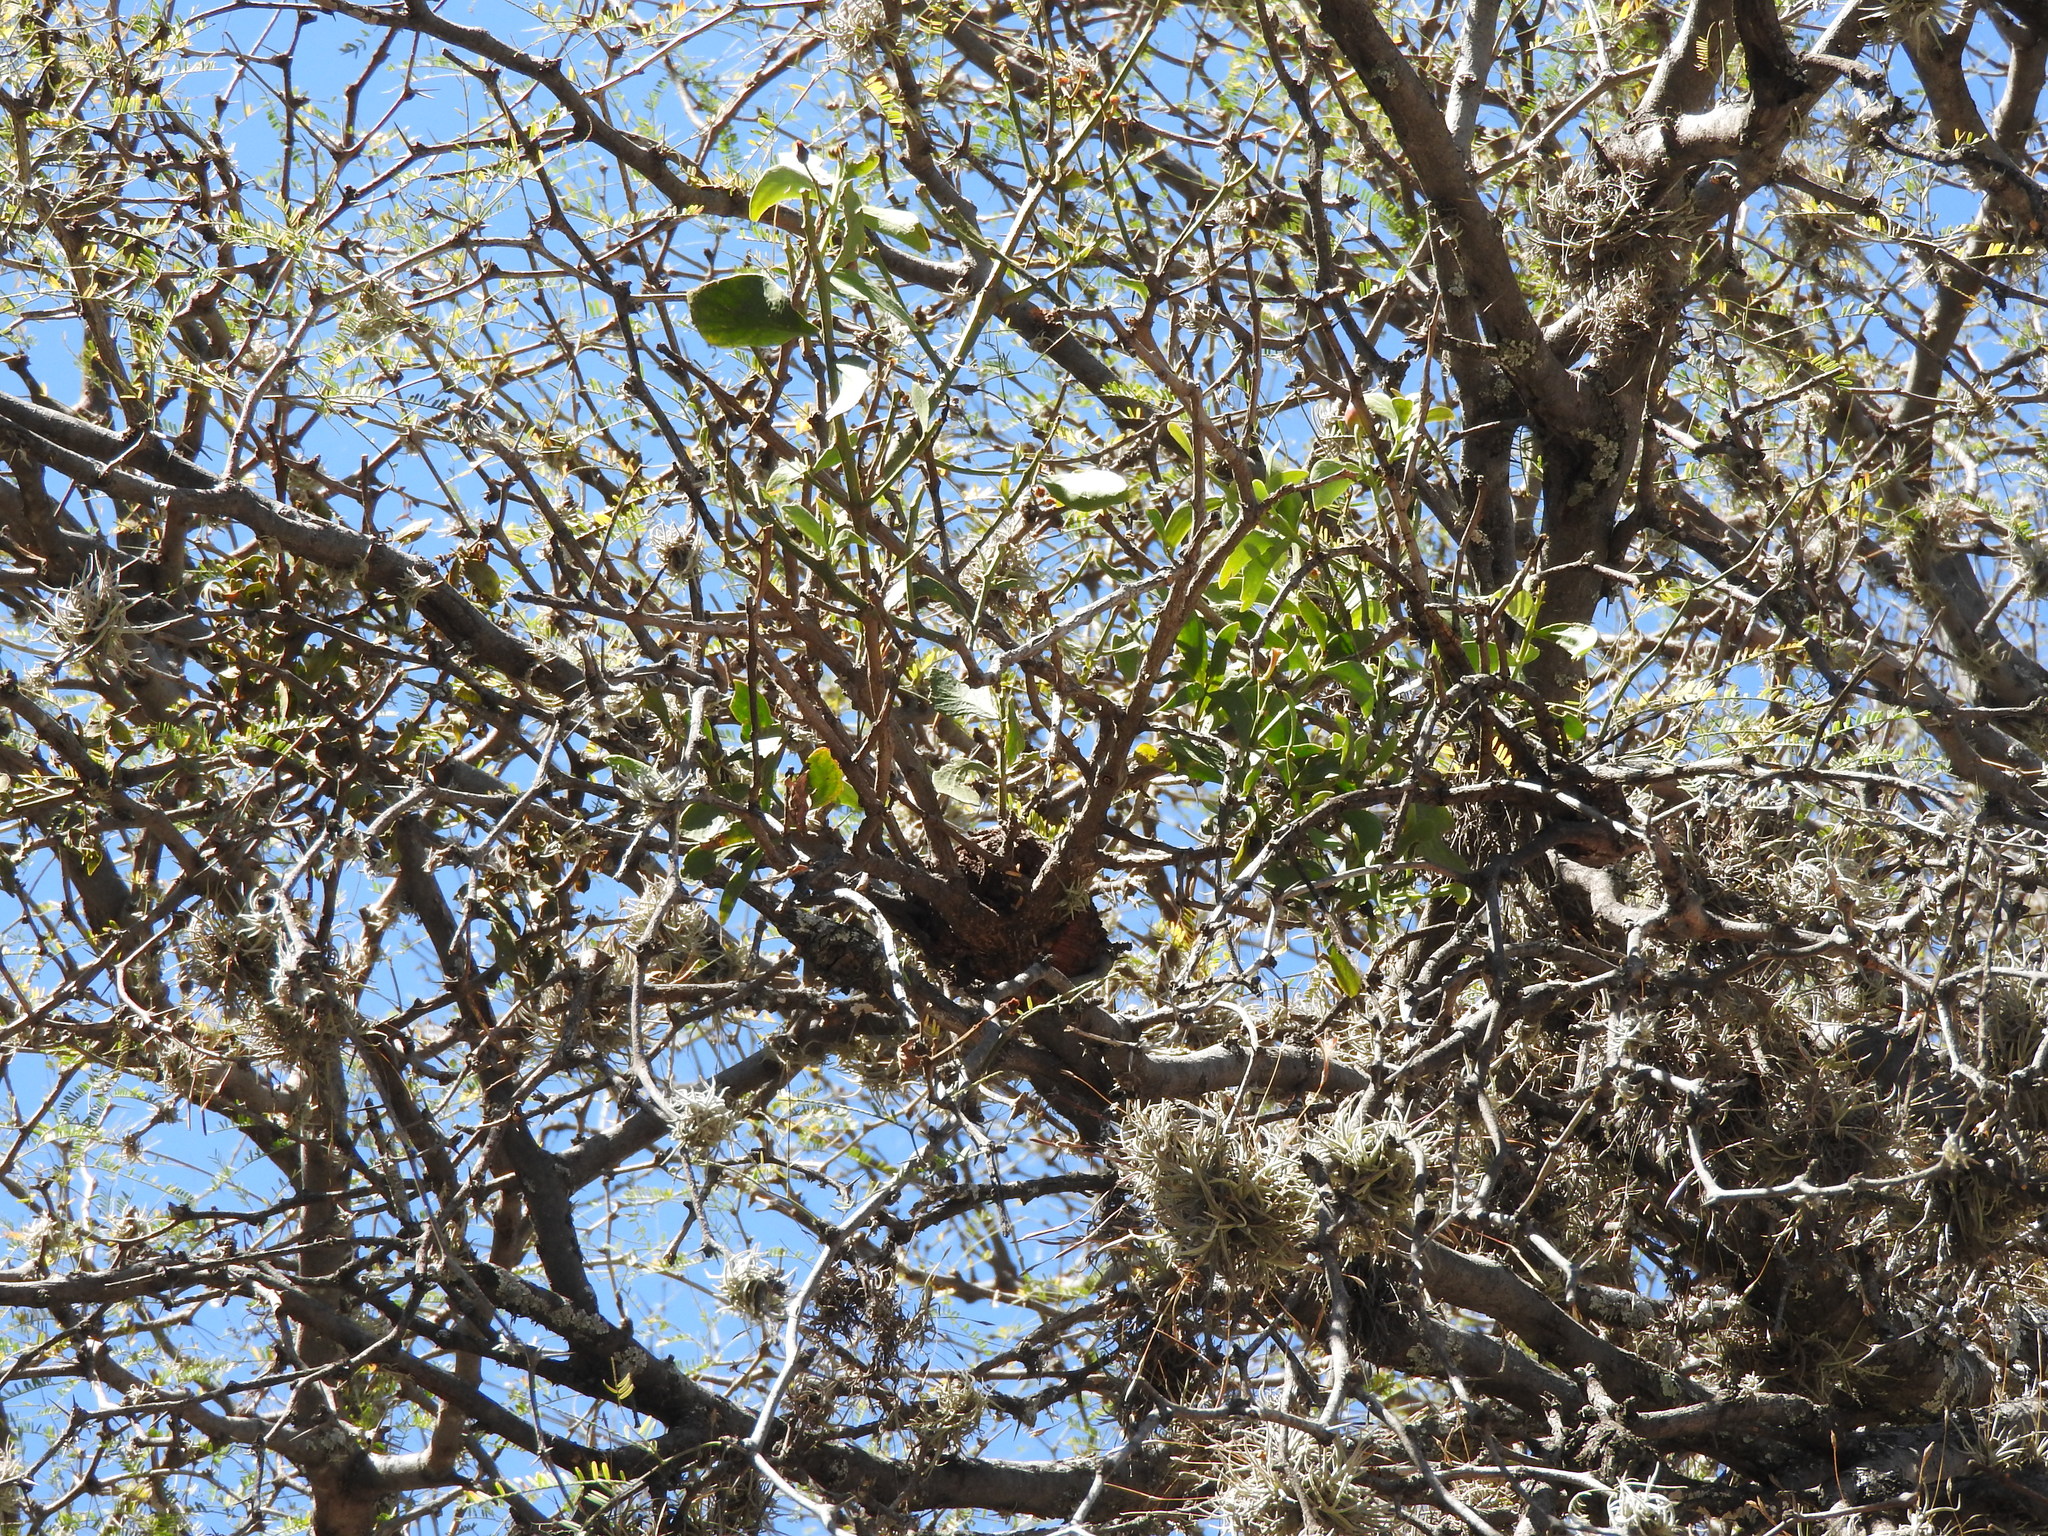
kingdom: Plantae
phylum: Tracheophyta
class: Magnoliopsida
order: Santalales
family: Loranthaceae
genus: Psittacanthus
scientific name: Psittacanthus calyculatus
